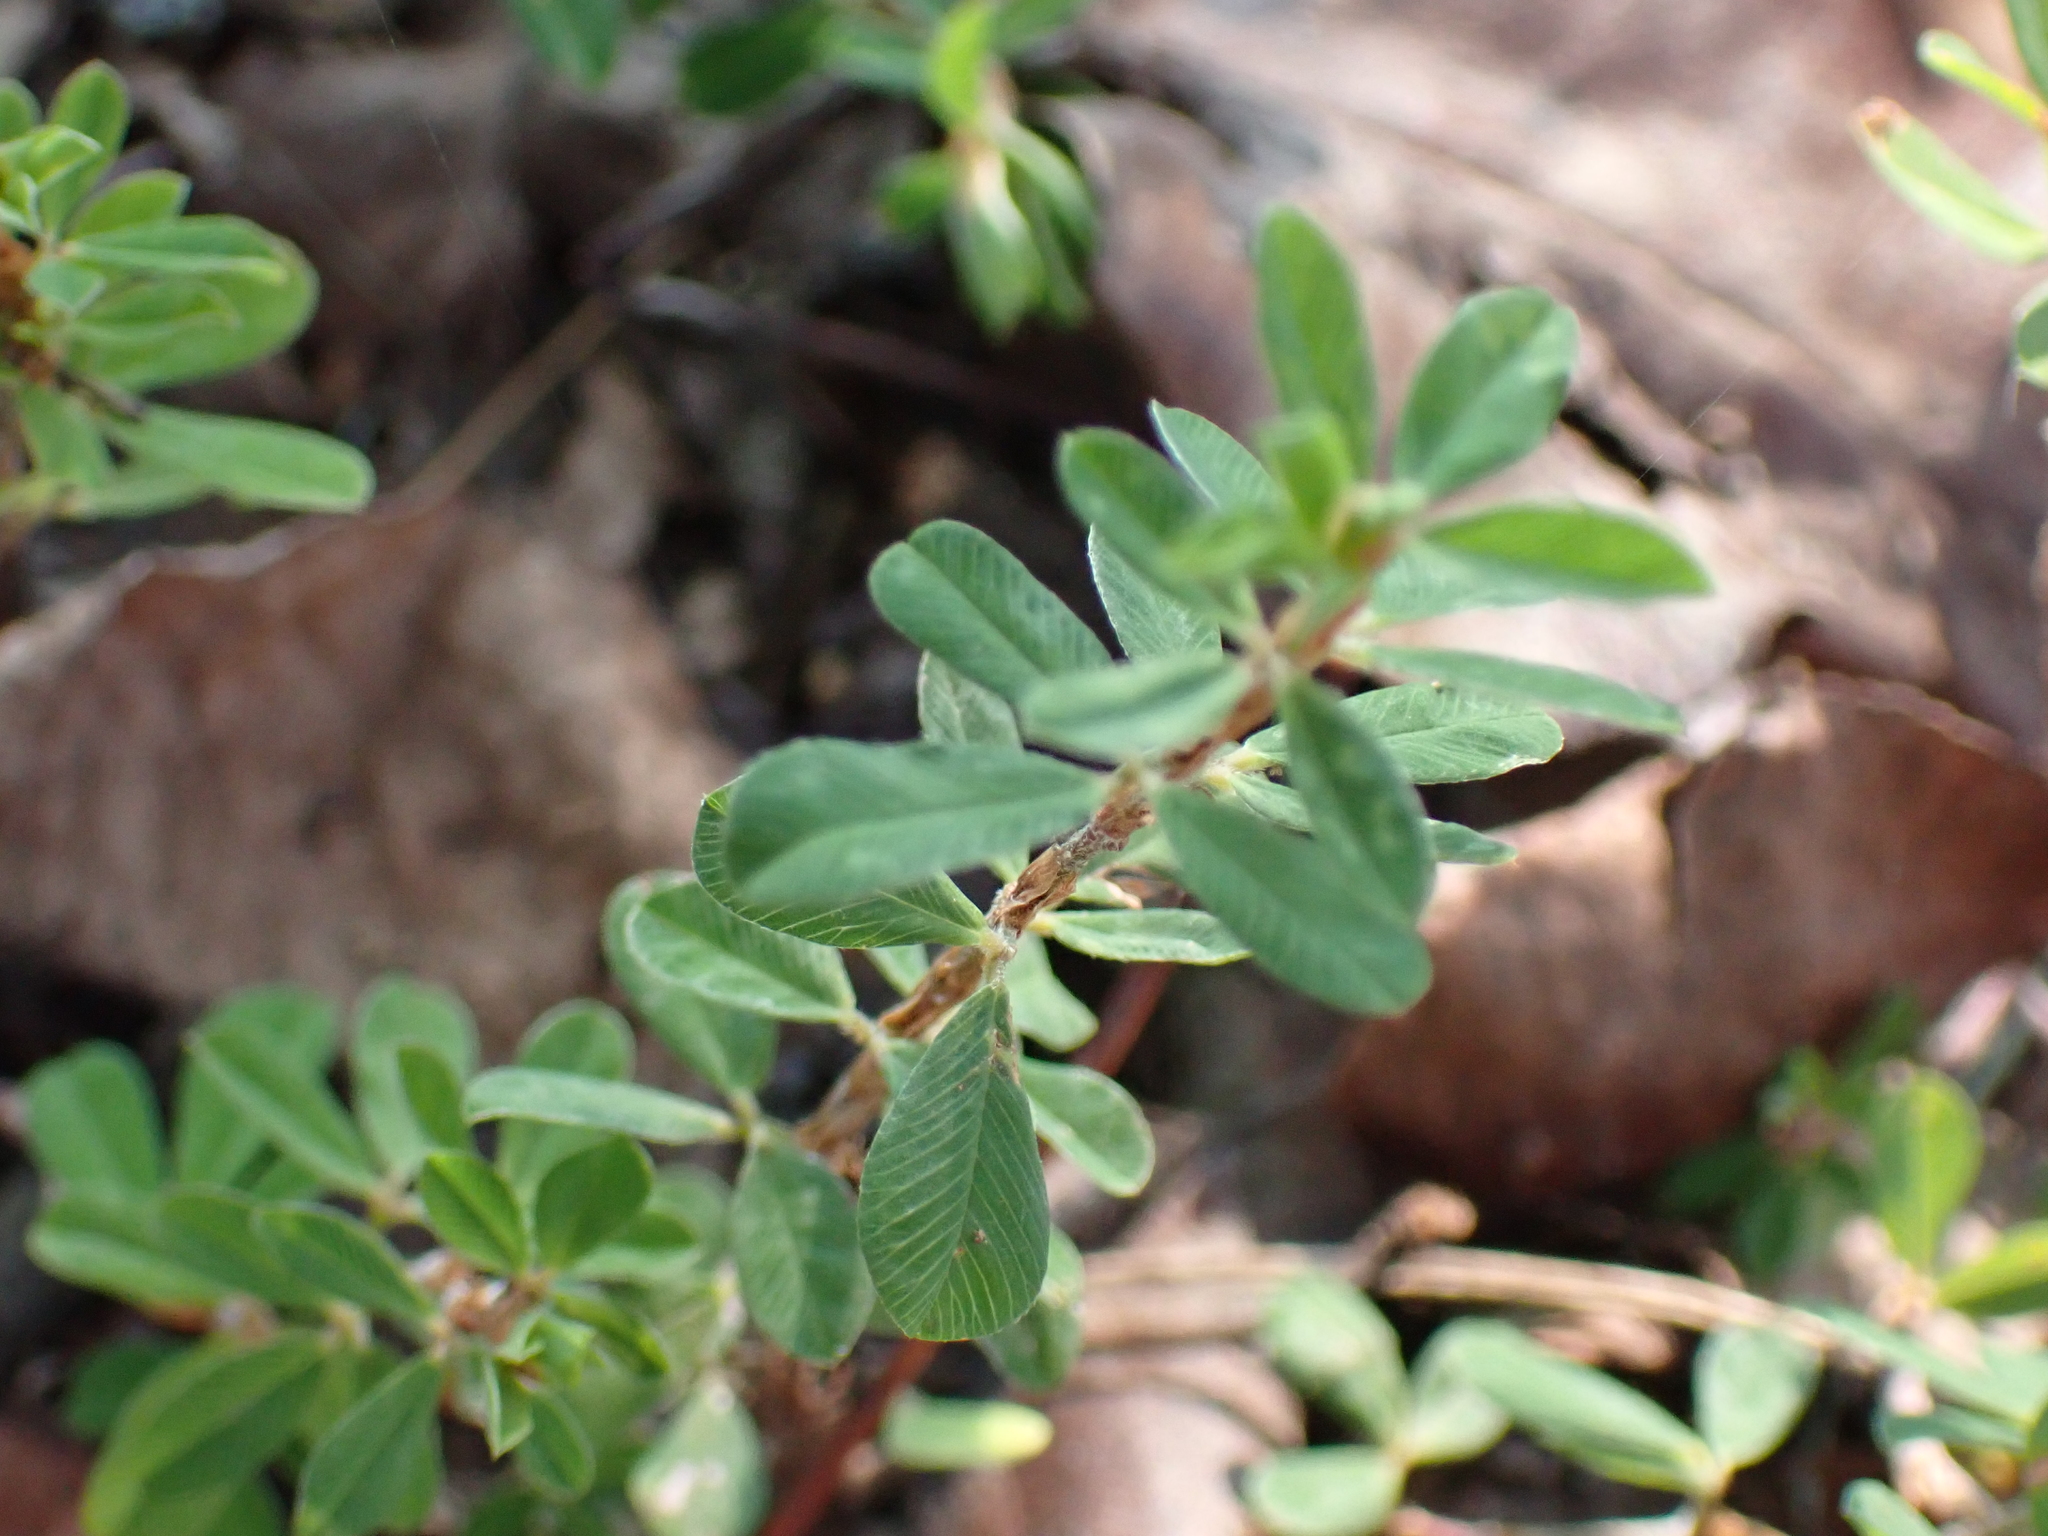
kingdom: Plantae
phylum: Tracheophyta
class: Magnoliopsida
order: Fabales
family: Fabaceae
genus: Kummerowia
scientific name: Kummerowia striata
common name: Japanese clover
